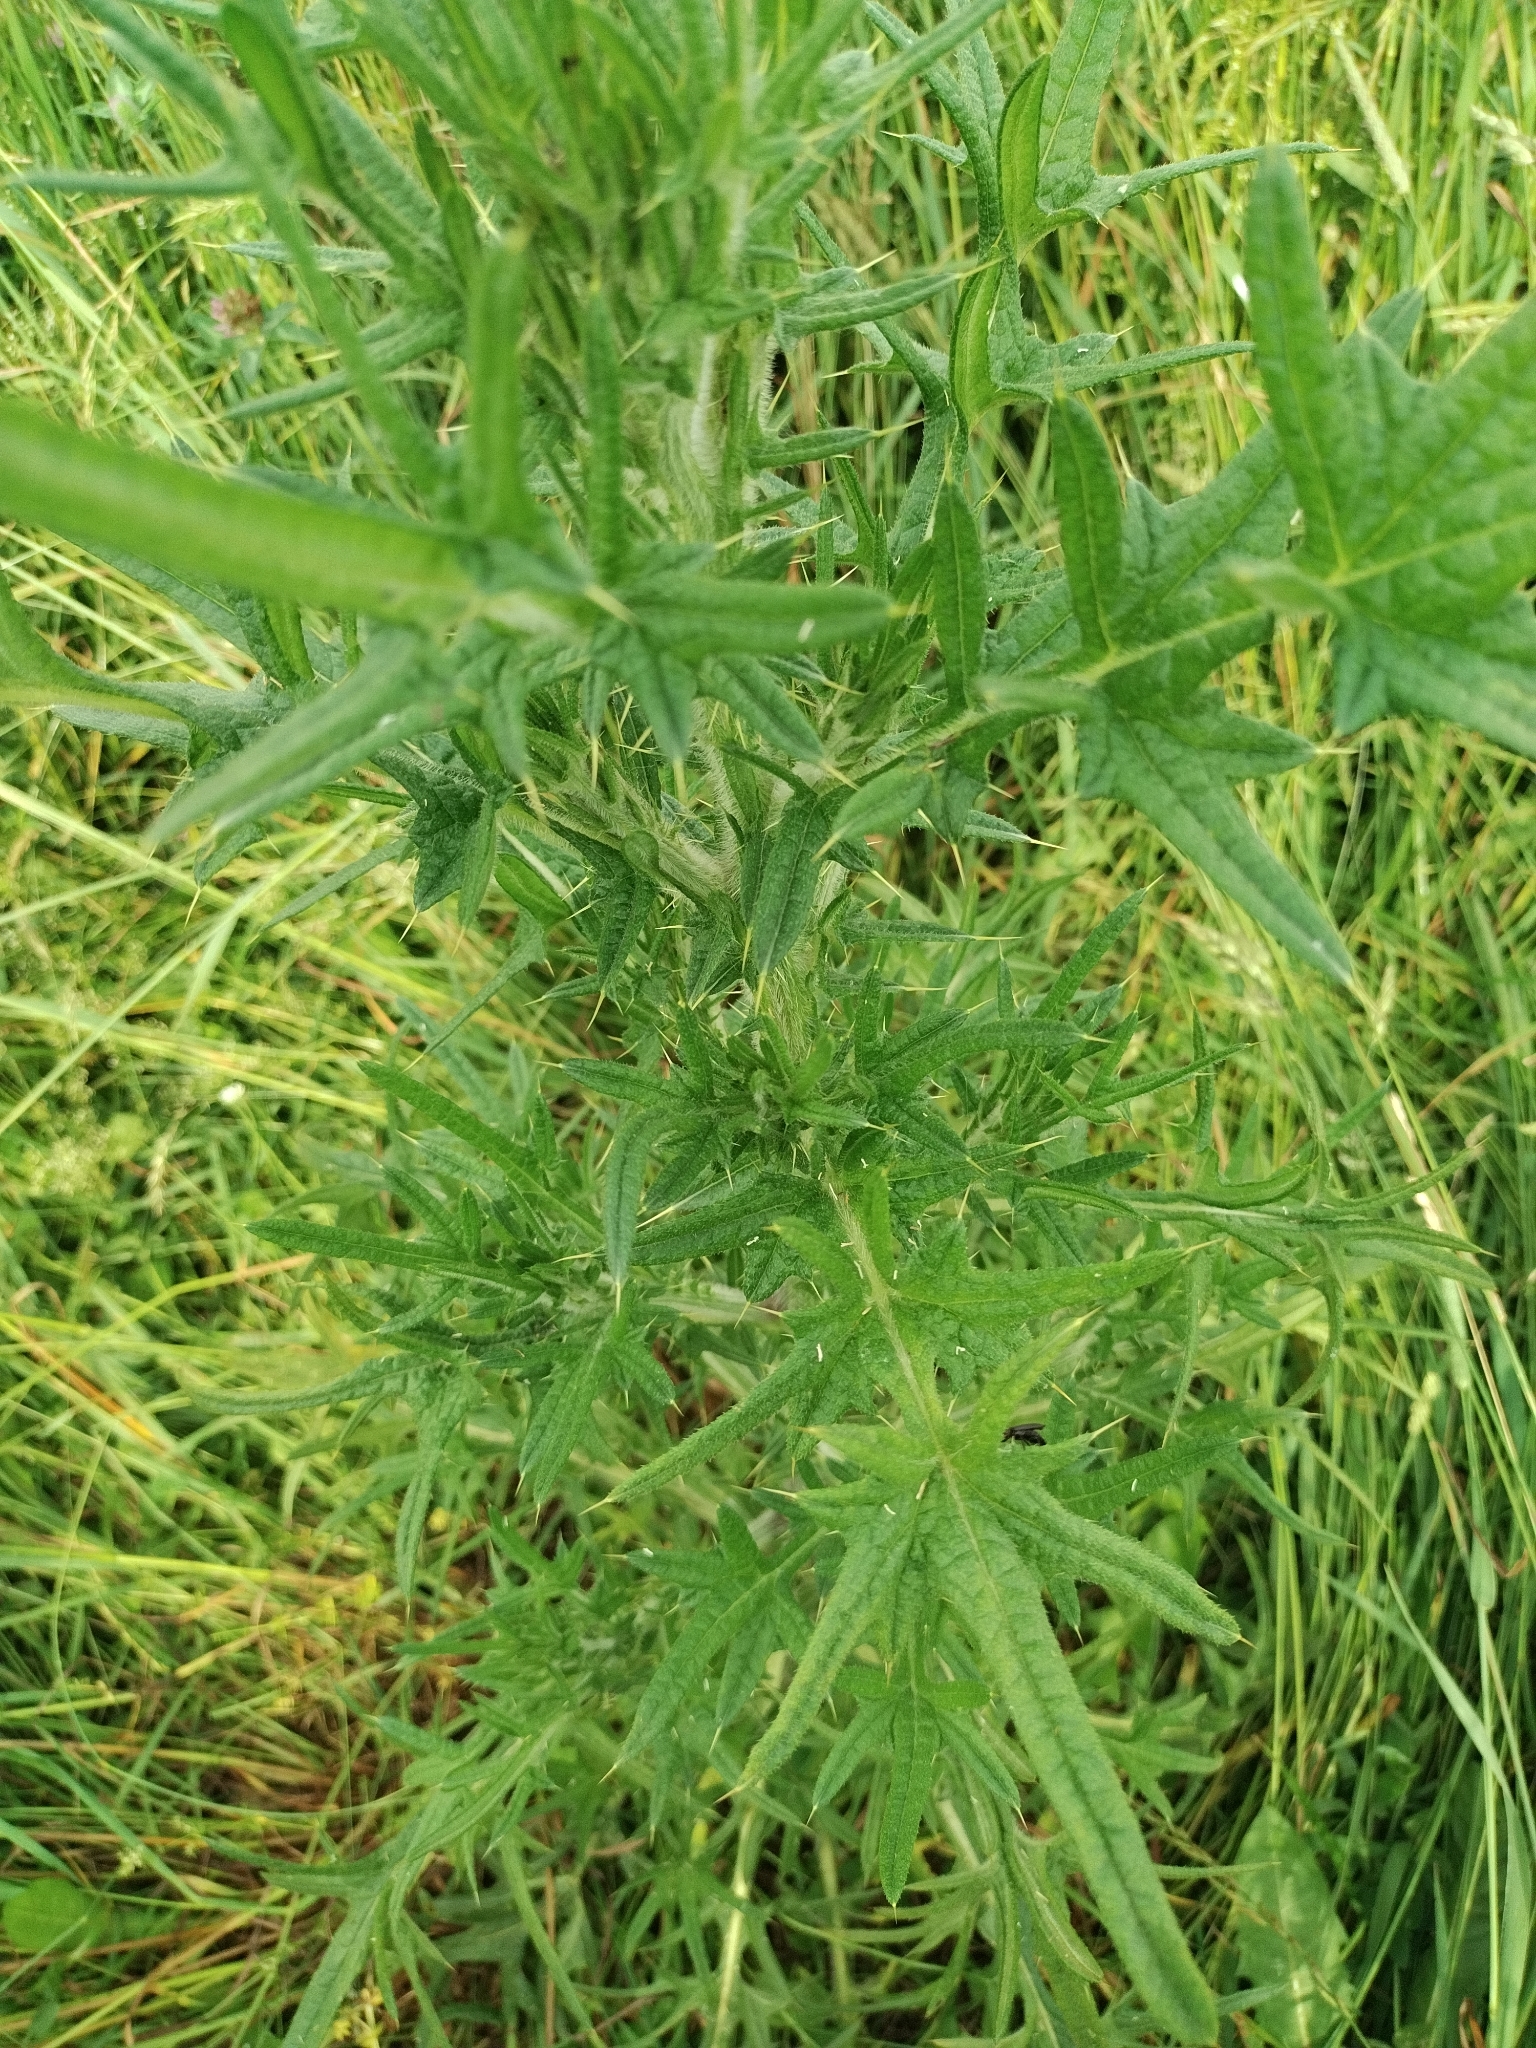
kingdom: Plantae
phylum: Tracheophyta
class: Magnoliopsida
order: Asterales
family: Asteraceae
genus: Cirsium
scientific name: Cirsium vulgare
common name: Bull thistle
